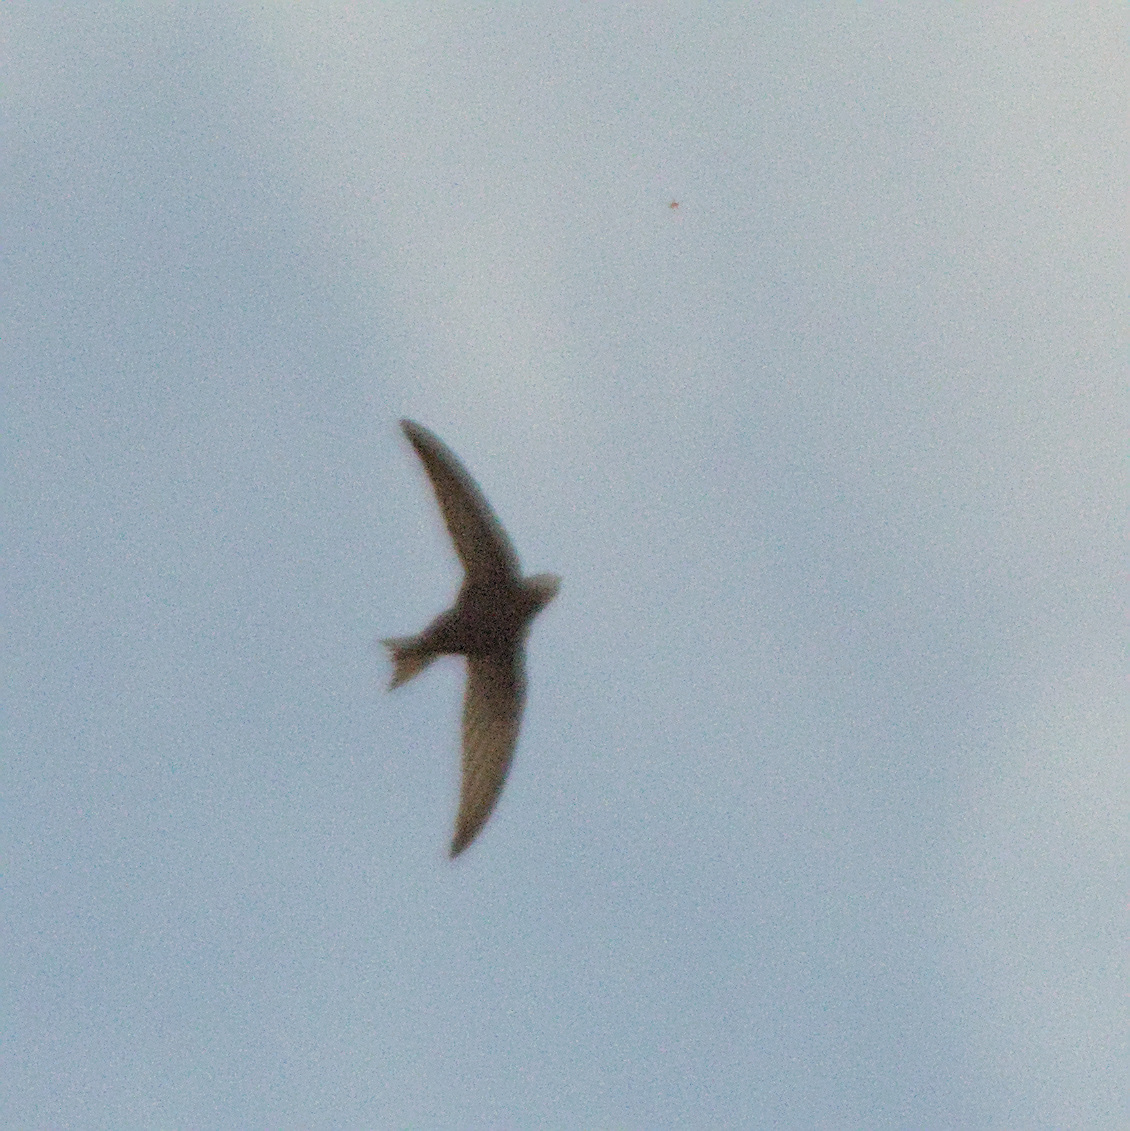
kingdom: Animalia
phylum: Chordata
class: Aves
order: Apodiformes
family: Apodidae
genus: Apus
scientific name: Apus apus
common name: Common swift
